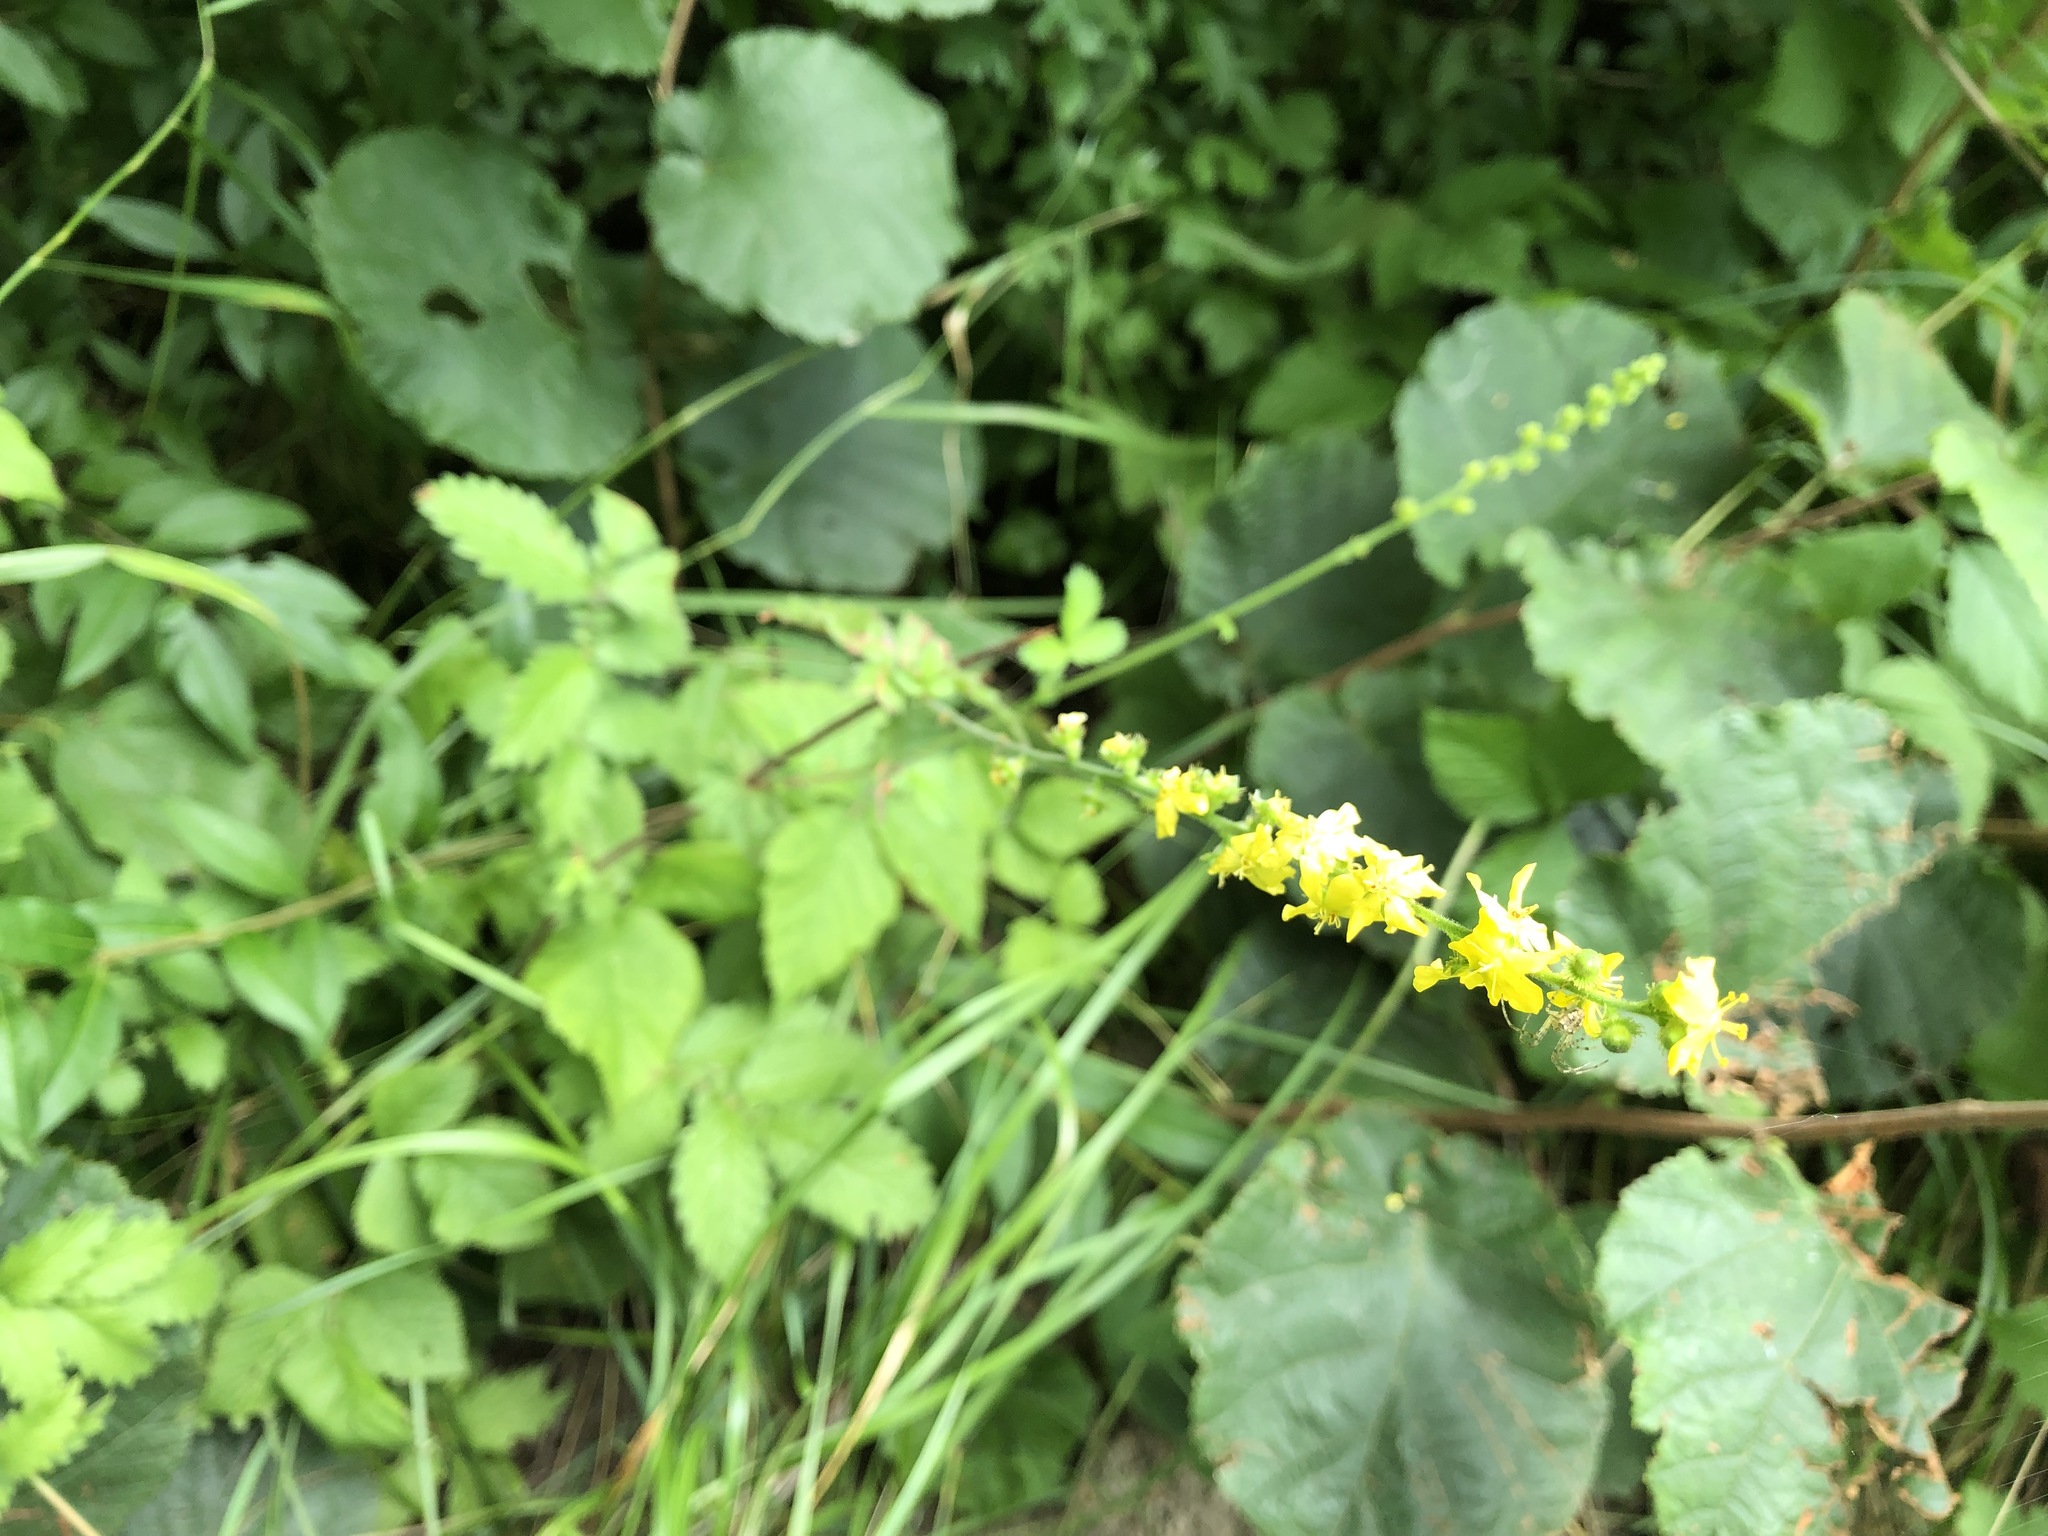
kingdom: Plantae
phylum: Tracheophyta
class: Magnoliopsida
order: Rosales
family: Rosaceae
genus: Agrimonia
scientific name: Agrimonia eupatoria
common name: Agrimony
